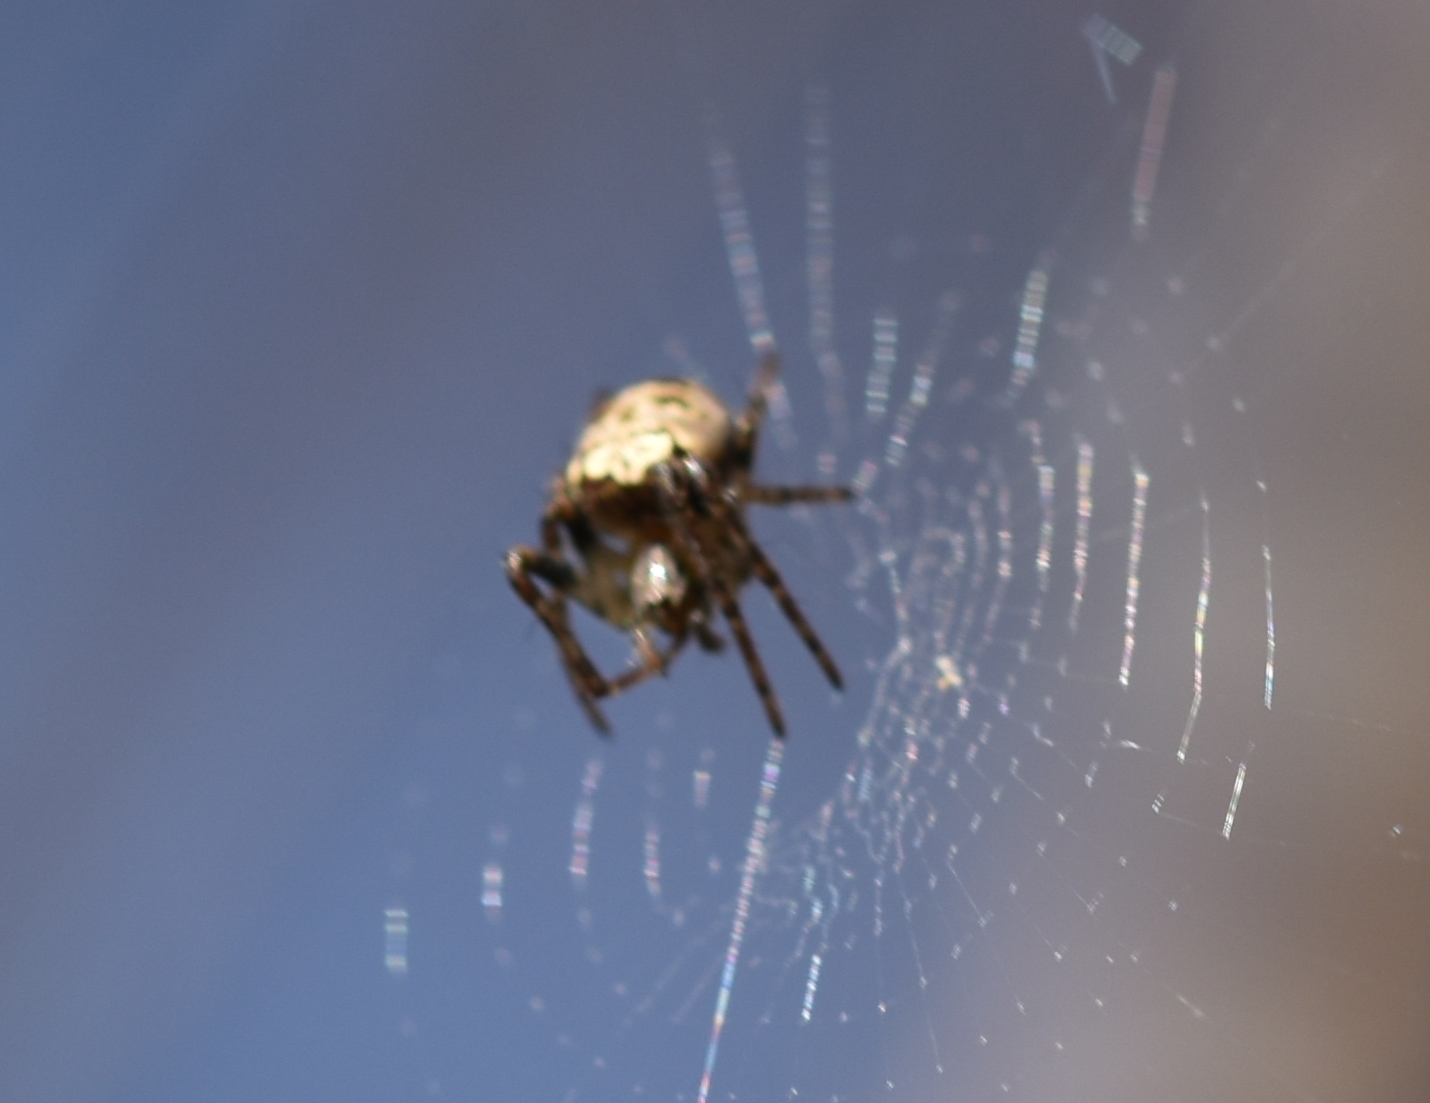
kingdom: Animalia
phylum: Arthropoda
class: Arachnida
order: Araneae
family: Araneidae
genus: Zilla
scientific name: Zilla diodia
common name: Zilla diodia
